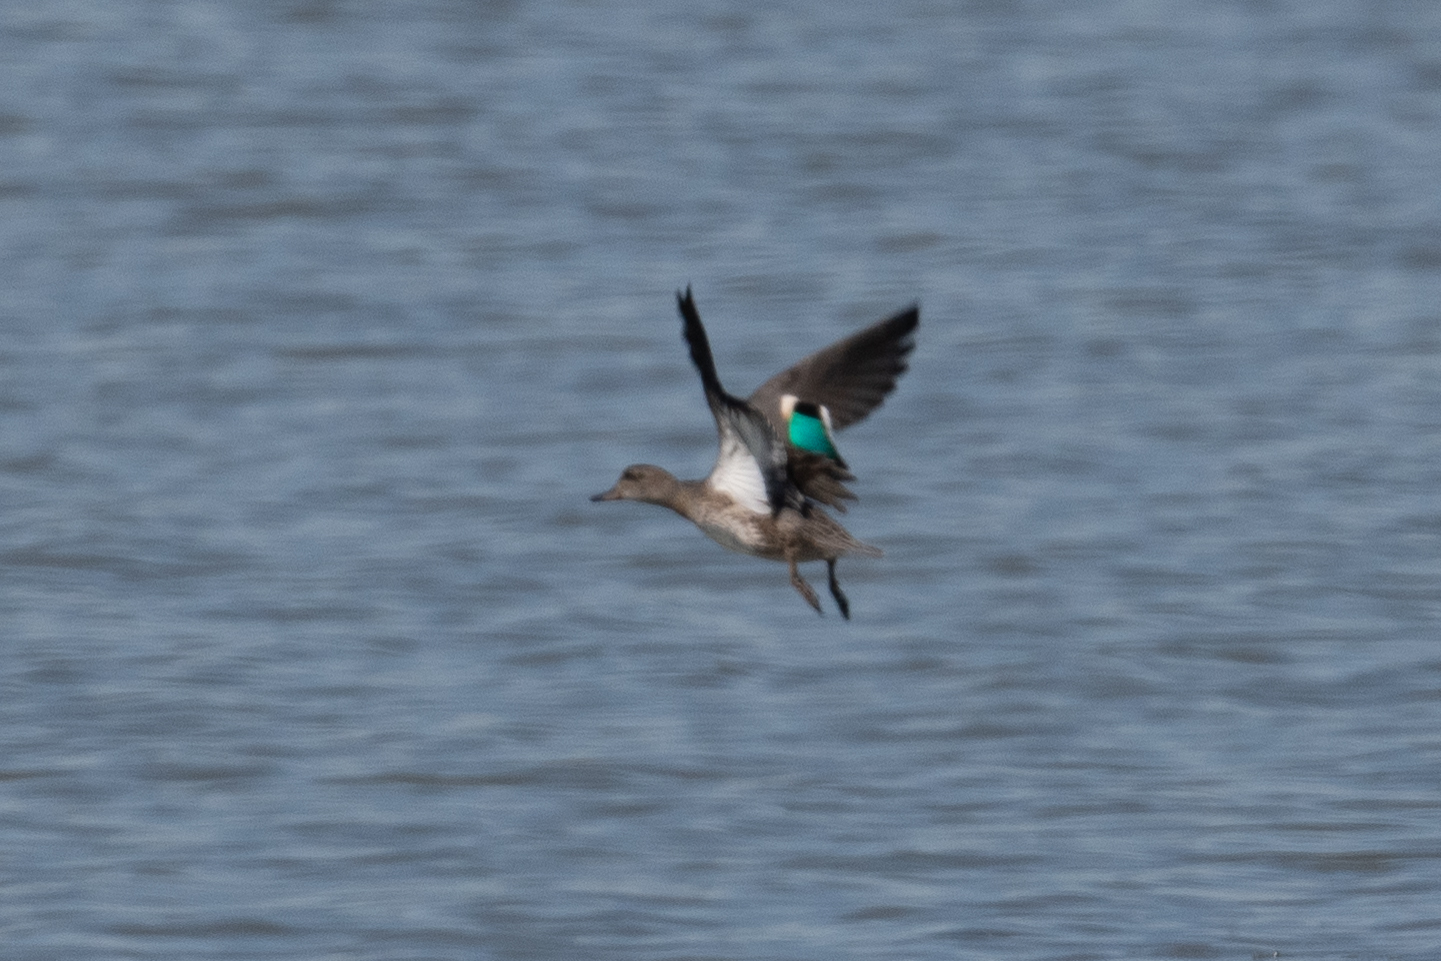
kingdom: Animalia
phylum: Chordata
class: Aves
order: Anseriformes
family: Anatidae
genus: Anas
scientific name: Anas crecca
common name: Eurasian teal
